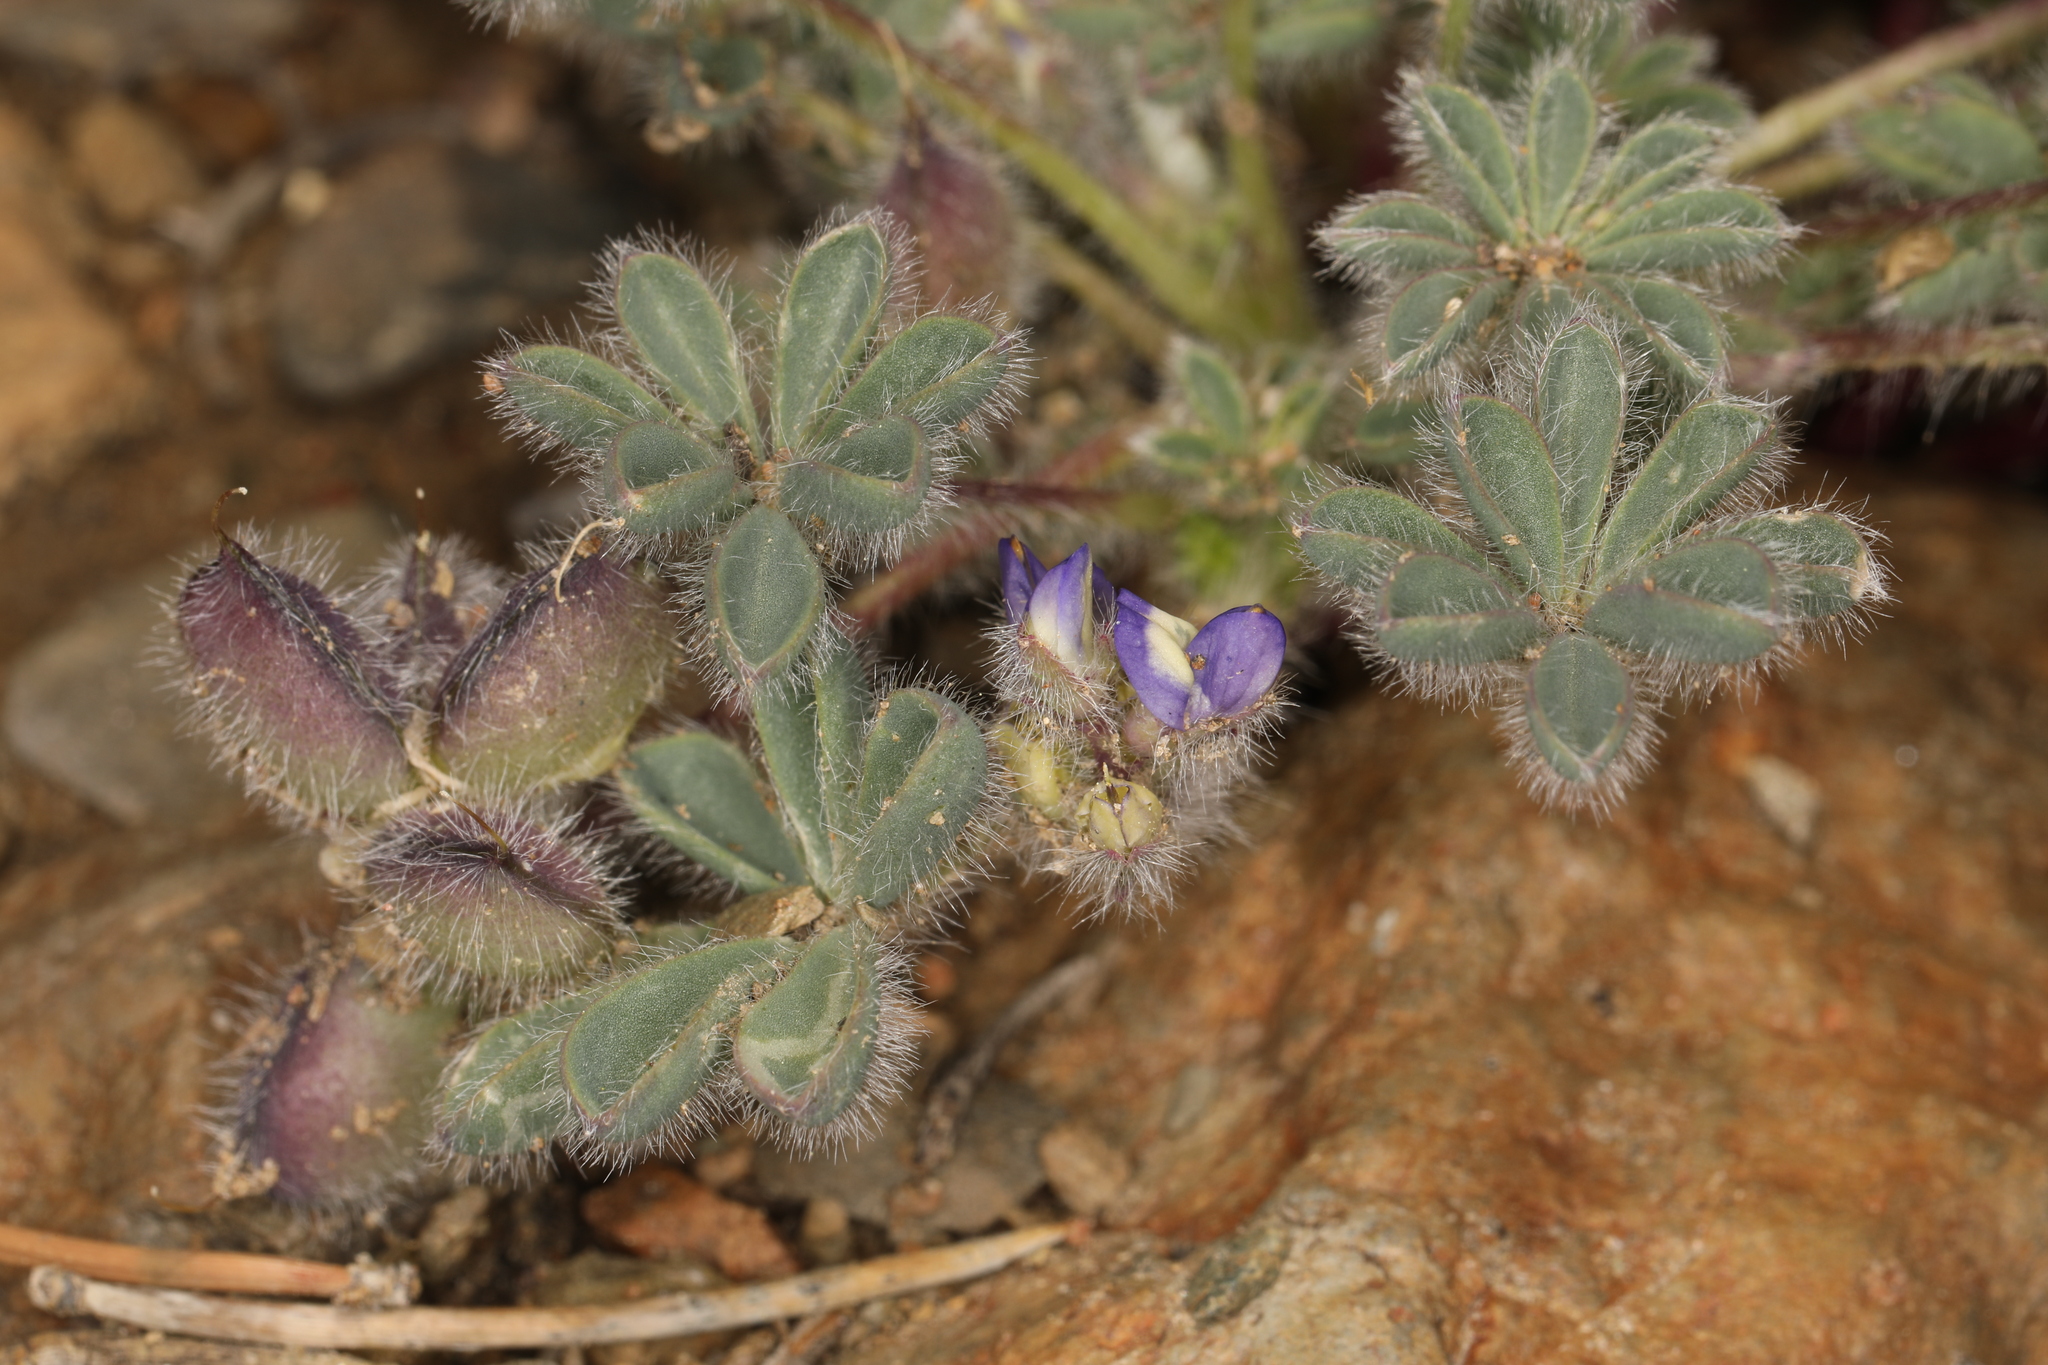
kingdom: Plantae
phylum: Tracheophyta
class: Magnoliopsida
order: Fabales
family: Fabaceae
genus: Lupinus
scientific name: Lupinus brevicaulis
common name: Sand lupine
